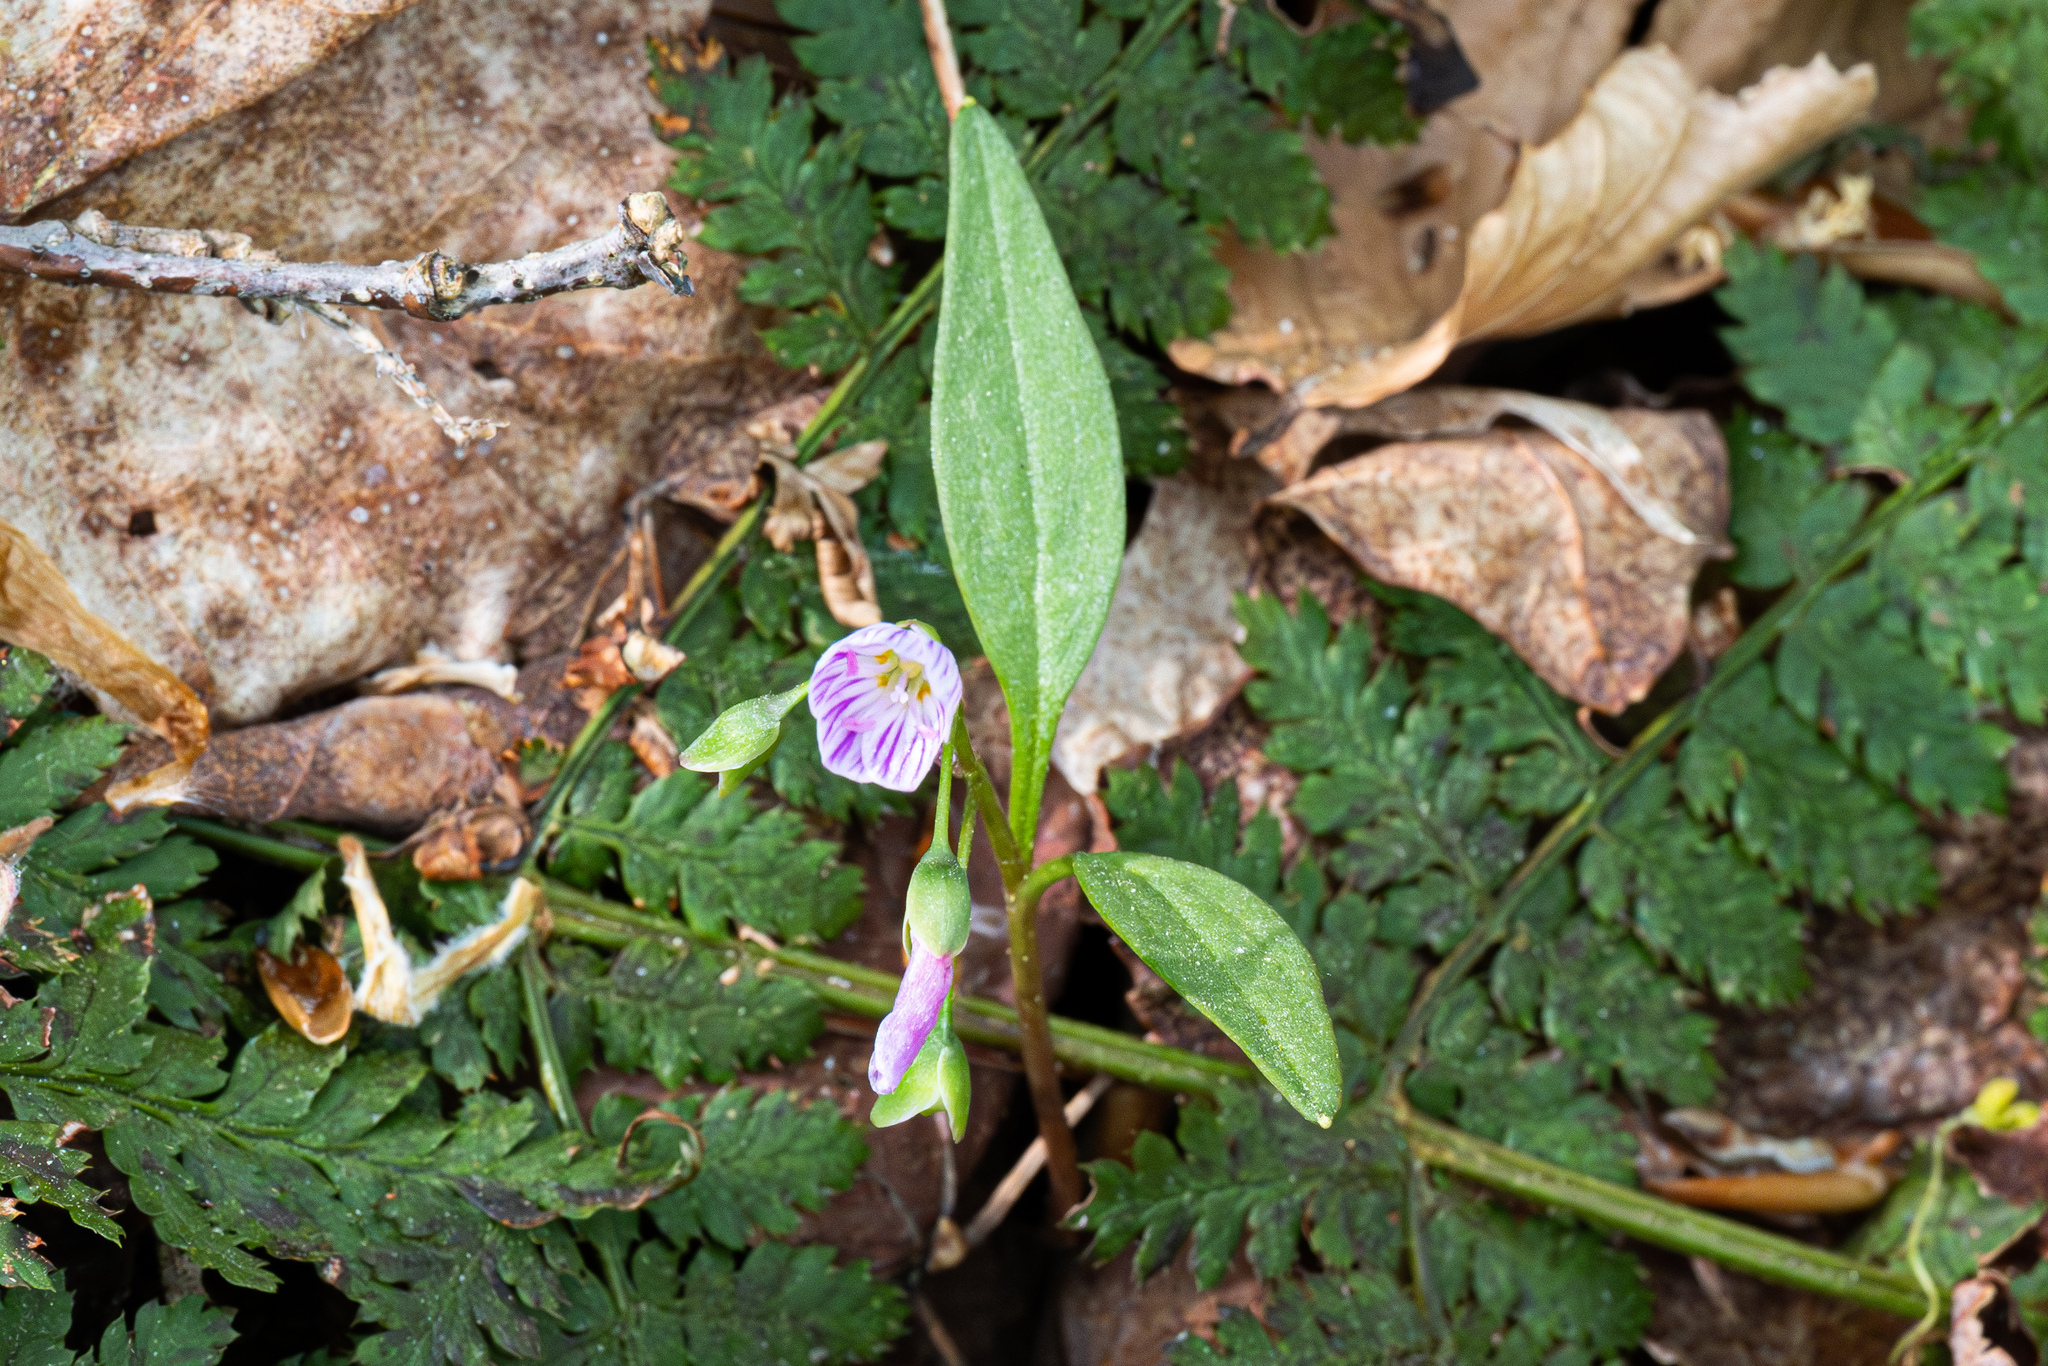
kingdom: Plantae
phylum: Tracheophyta
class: Magnoliopsida
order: Caryophyllales
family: Montiaceae
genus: Claytonia
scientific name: Claytonia caroliniana
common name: Carolina spring beauty
